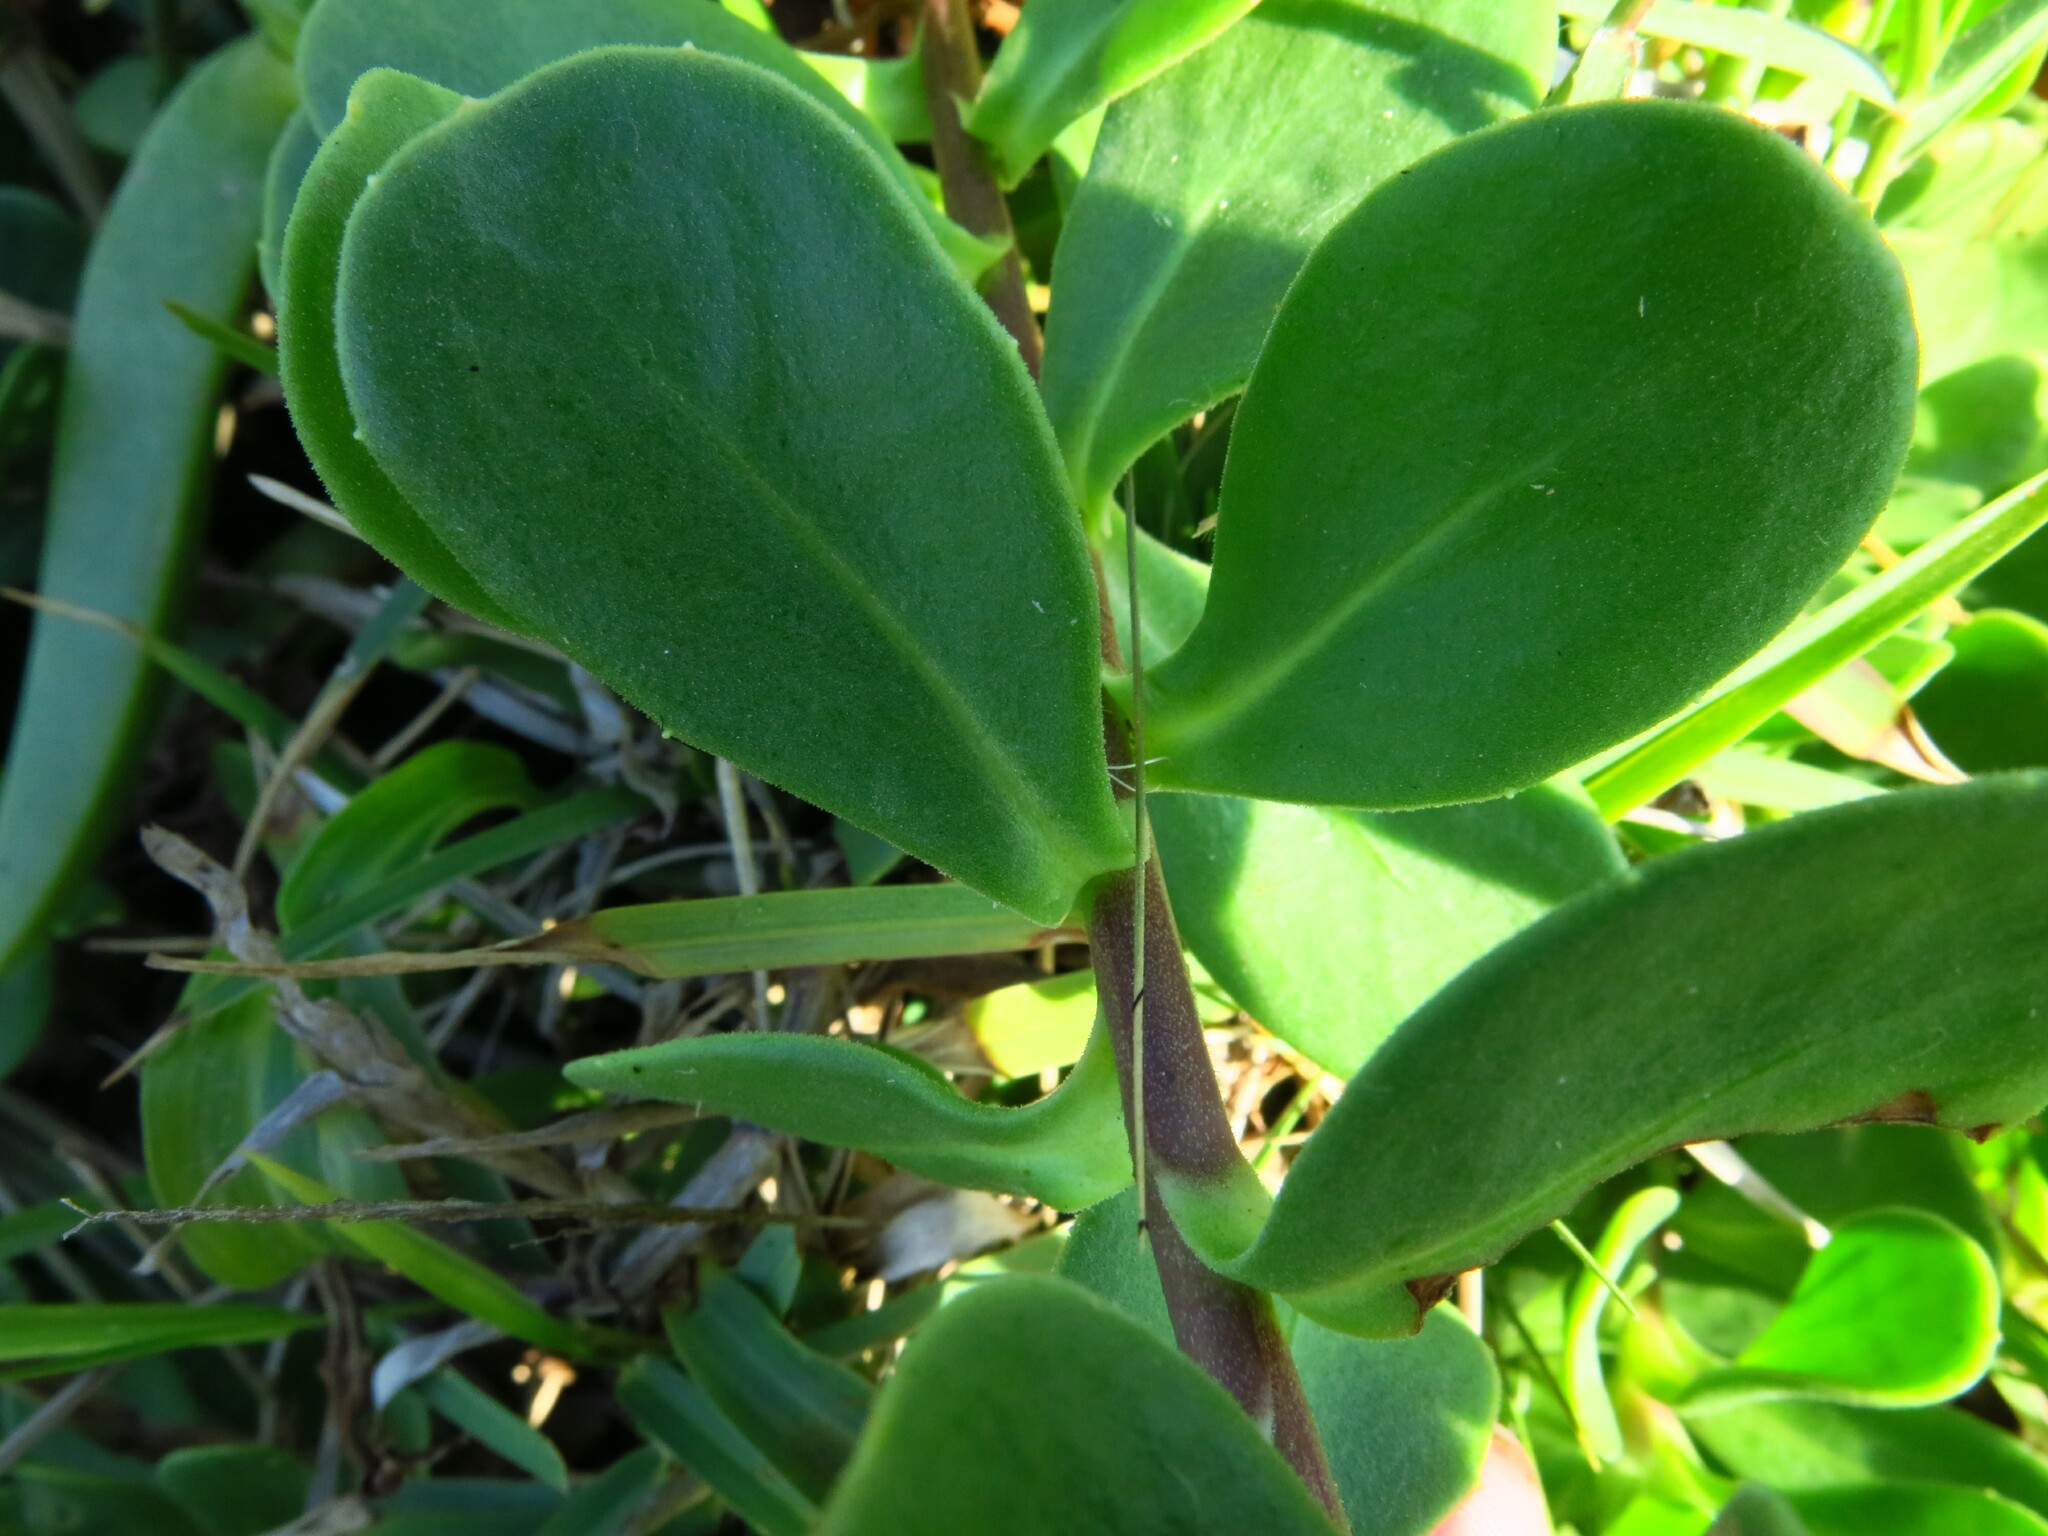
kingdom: Plantae
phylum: Tracheophyta
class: Magnoliopsida
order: Asterales
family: Asteraceae
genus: Dimorphotheca
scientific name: Dimorphotheca fruticosa
